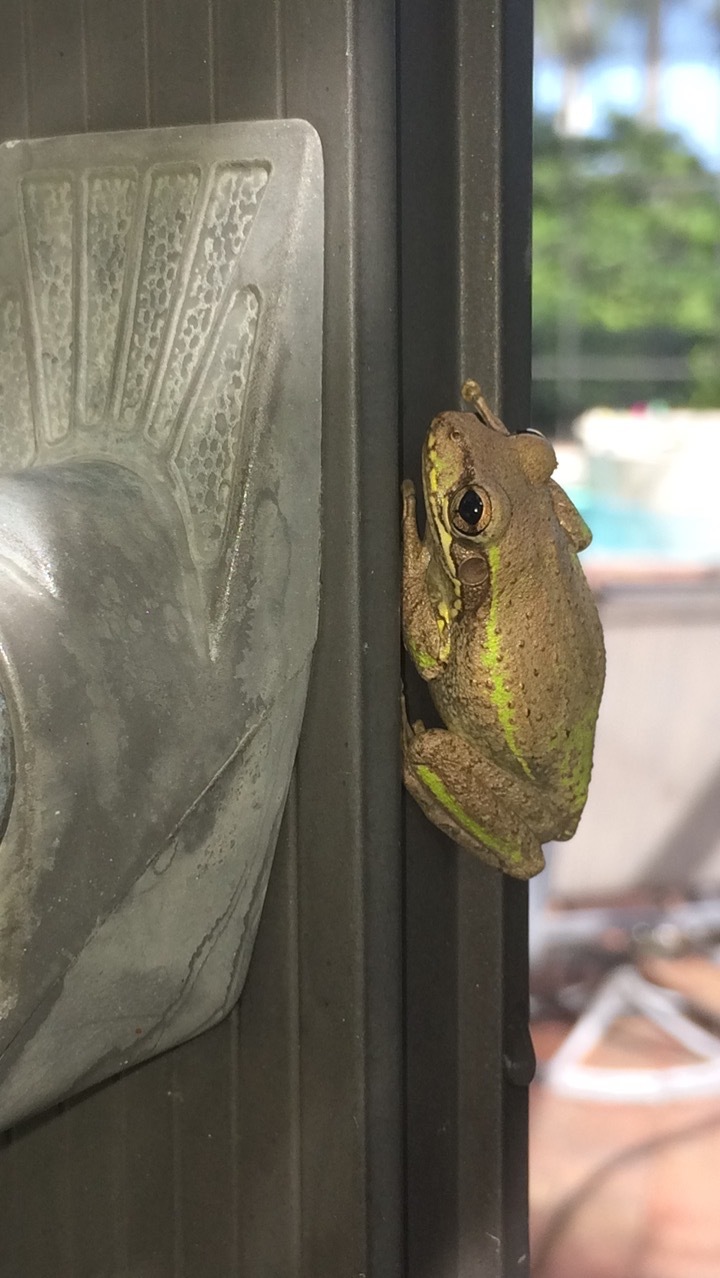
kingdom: Animalia
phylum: Chordata
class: Amphibia
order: Anura
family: Hylidae
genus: Osteopilus
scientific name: Osteopilus septentrionalis
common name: Cuban treefrog
